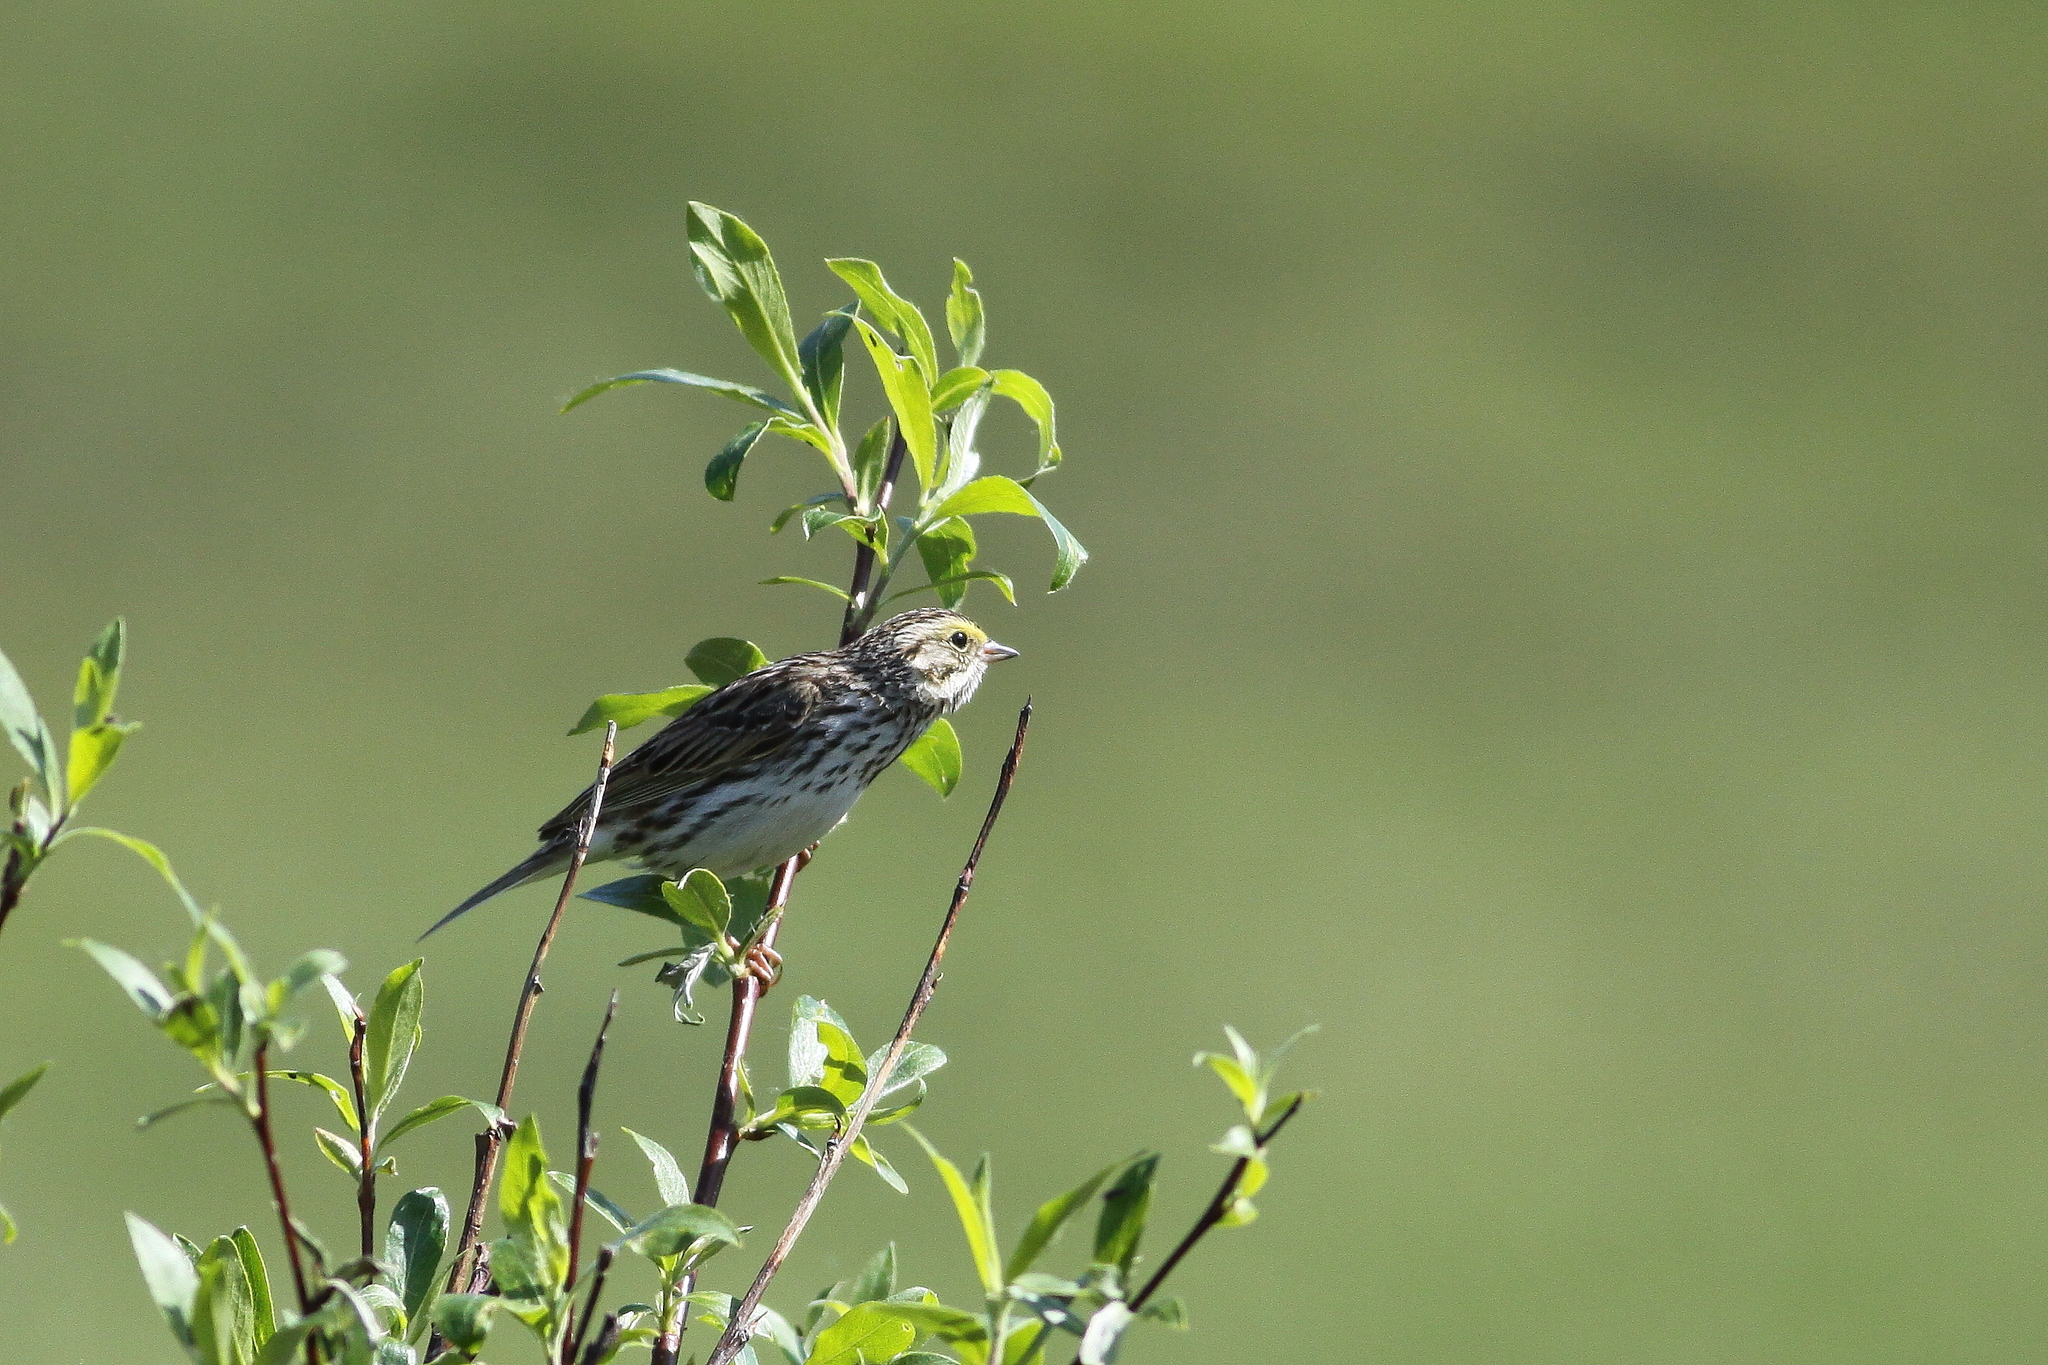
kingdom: Animalia
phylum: Chordata
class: Aves
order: Passeriformes
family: Passerellidae
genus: Passerculus
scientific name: Passerculus sandwichensis
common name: Savannah sparrow
